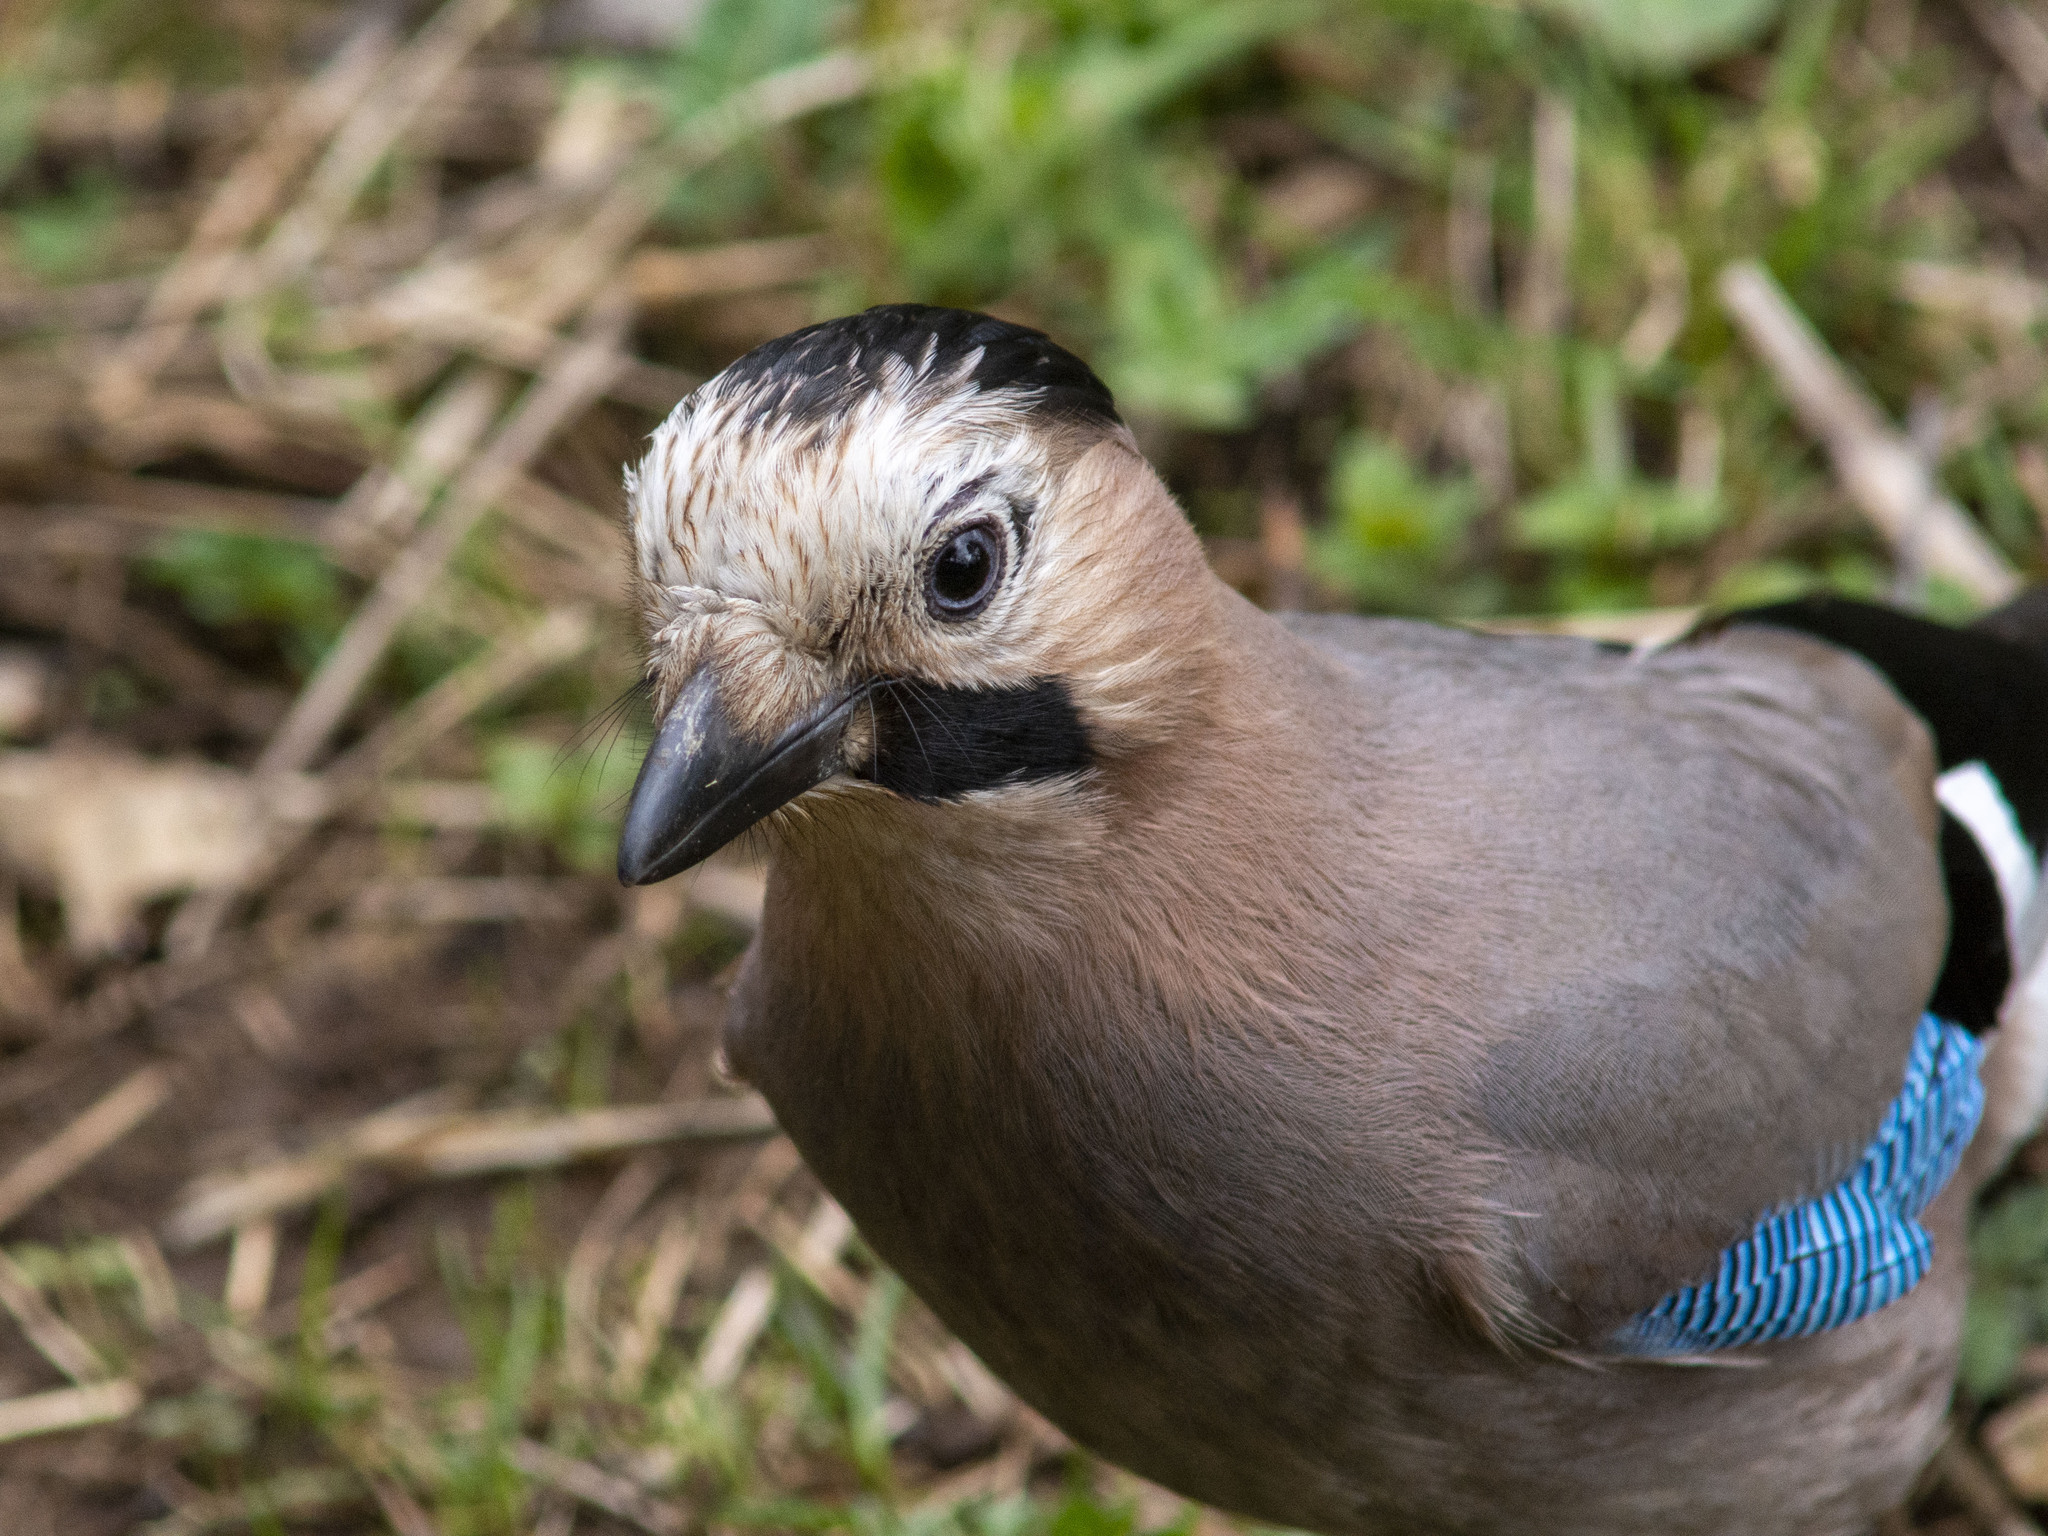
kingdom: Animalia
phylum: Chordata
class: Aves
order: Passeriformes
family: Corvidae
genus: Garrulus
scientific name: Garrulus glandarius
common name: Eurasian jay
